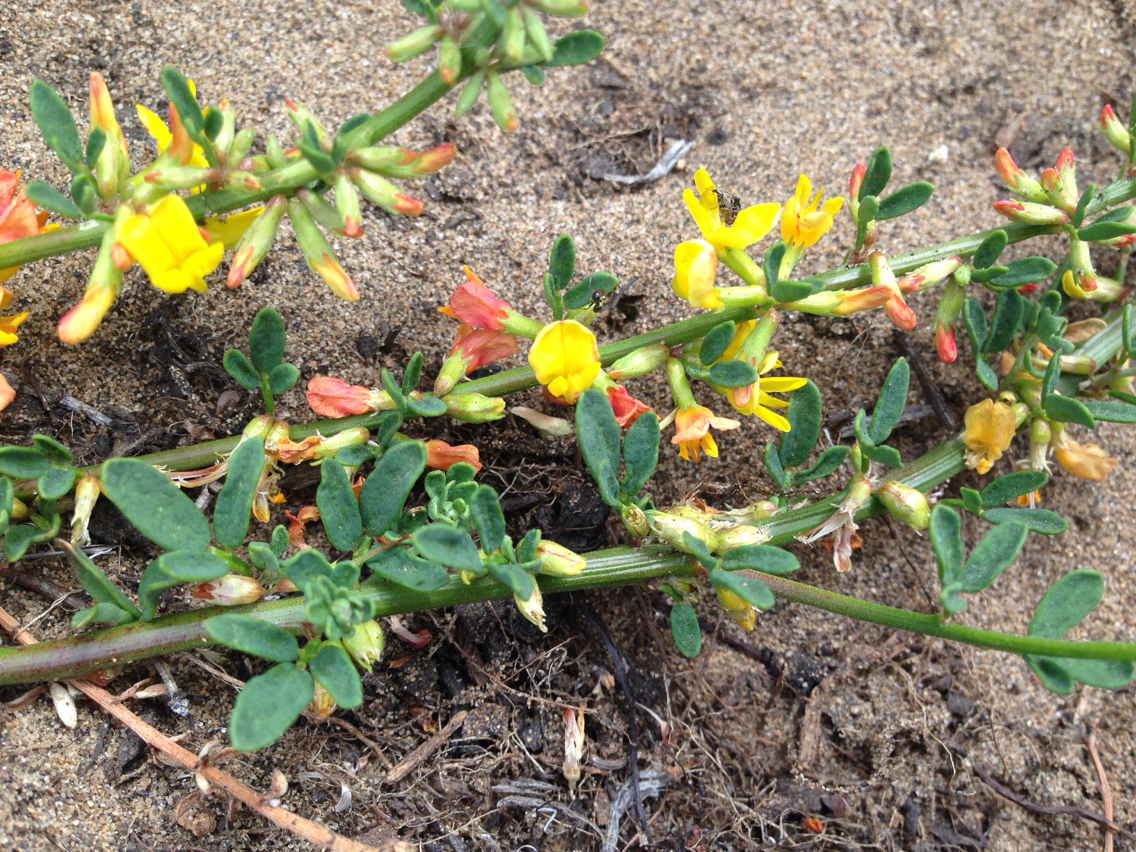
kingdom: Plantae
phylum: Tracheophyta
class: Magnoliopsida
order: Fabales
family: Fabaceae
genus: Acmispon
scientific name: Acmispon glaber
